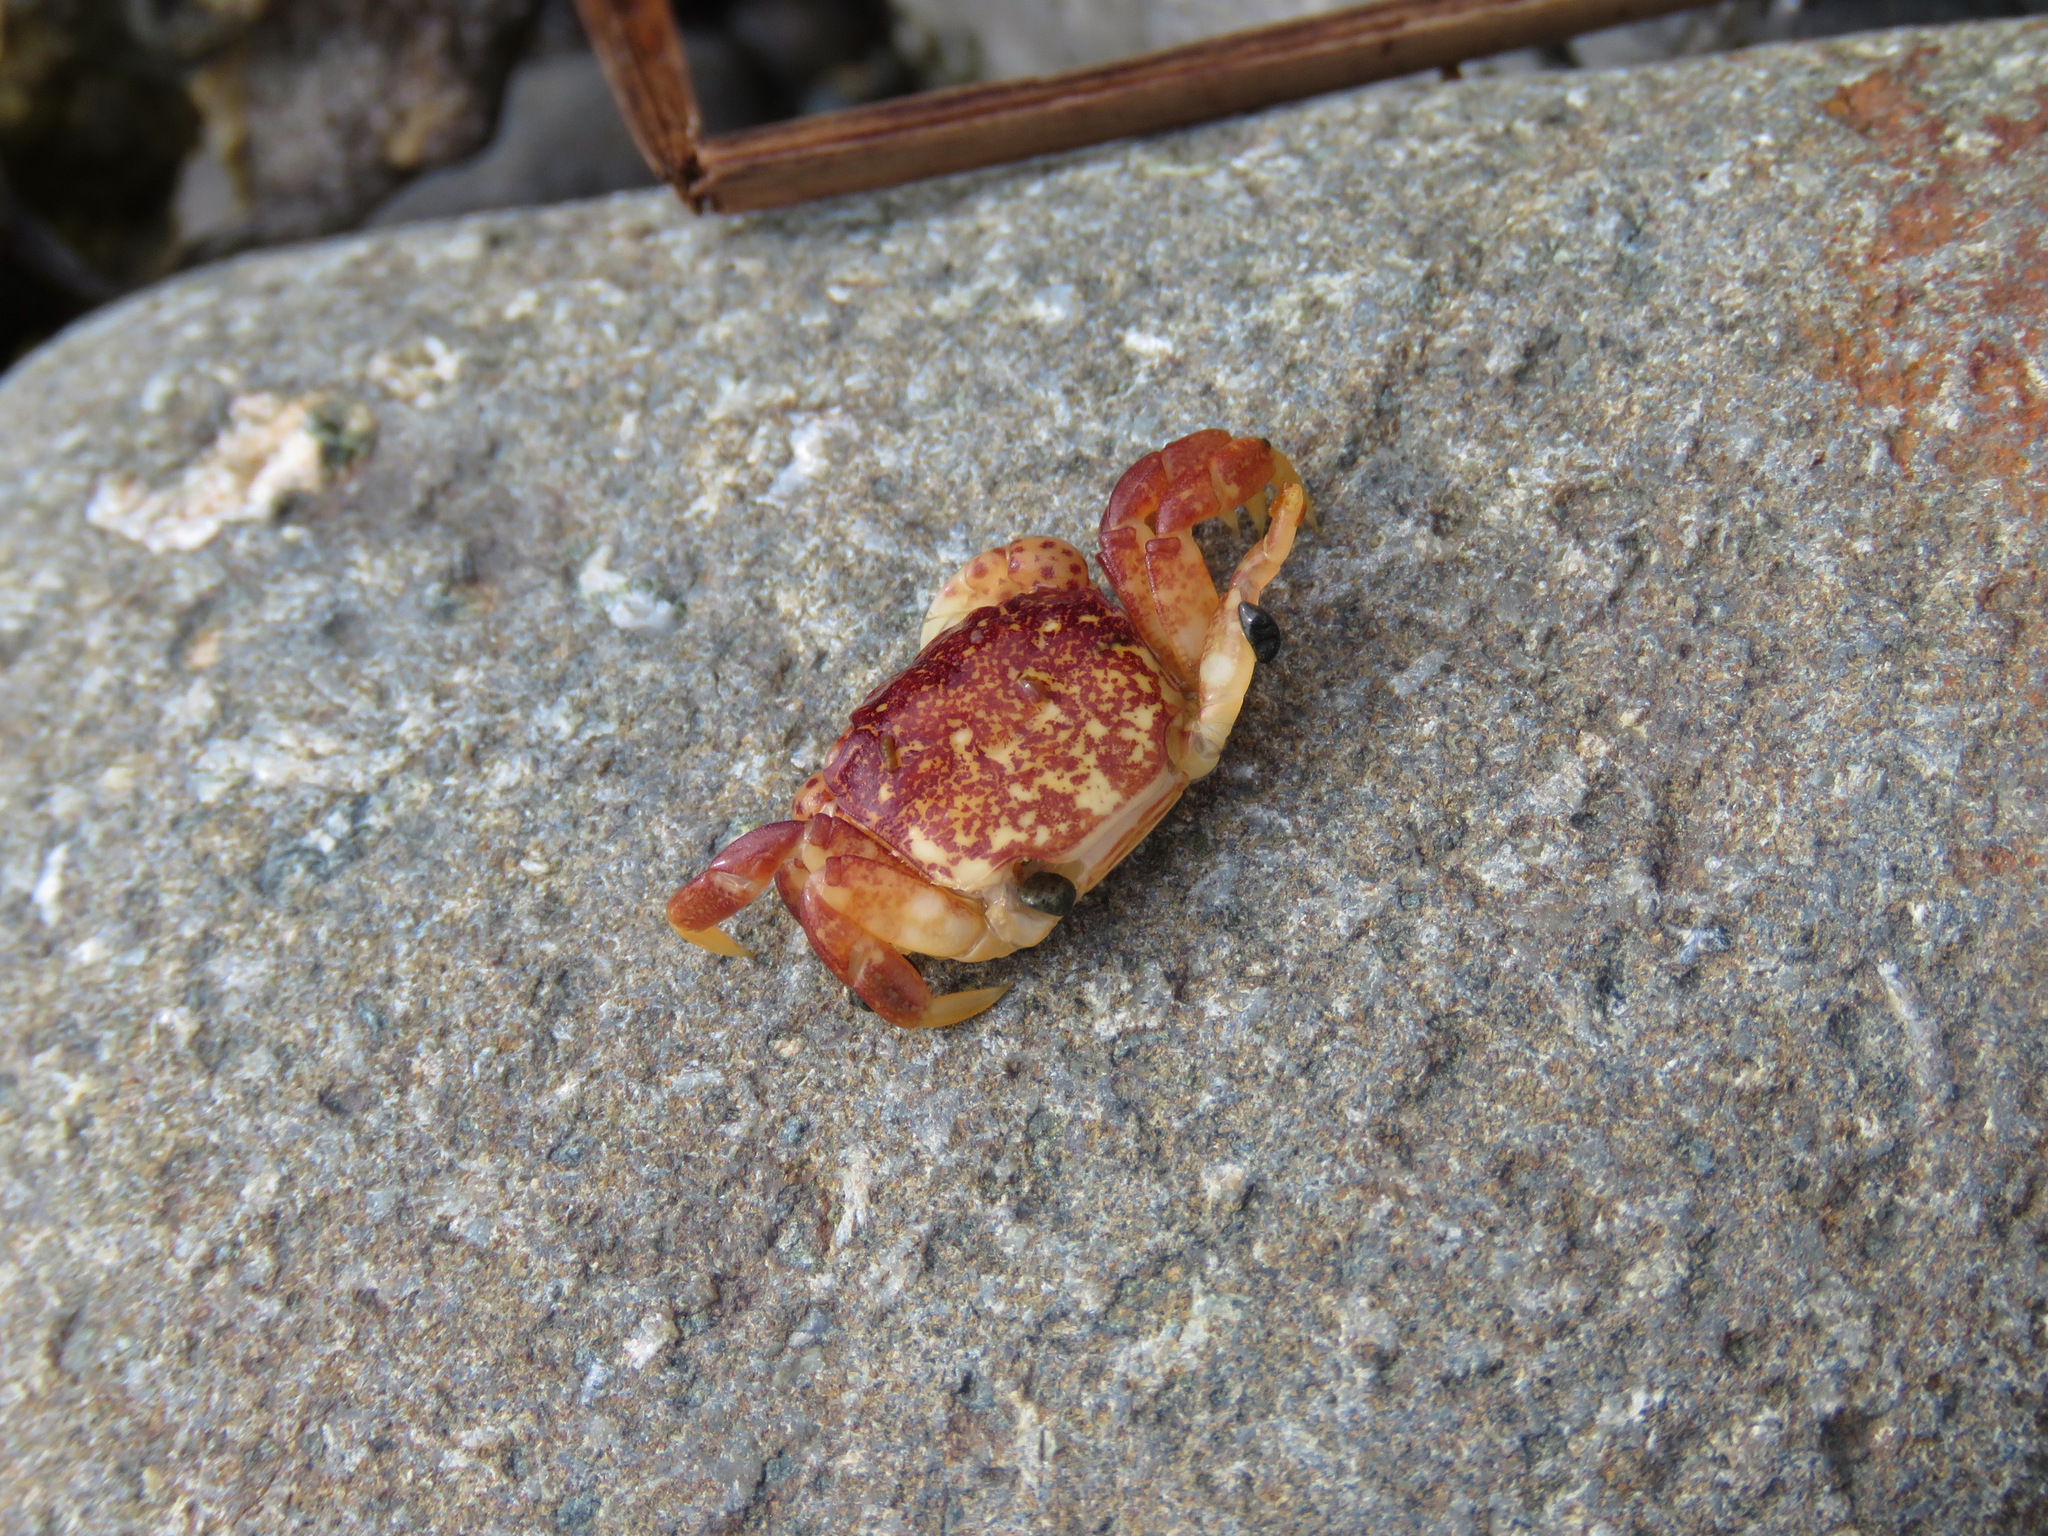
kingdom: Animalia
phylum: Arthropoda
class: Malacostraca
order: Decapoda
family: Varunidae
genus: Hemigrapsus
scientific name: Hemigrapsus nudus
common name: Purple shore crab
